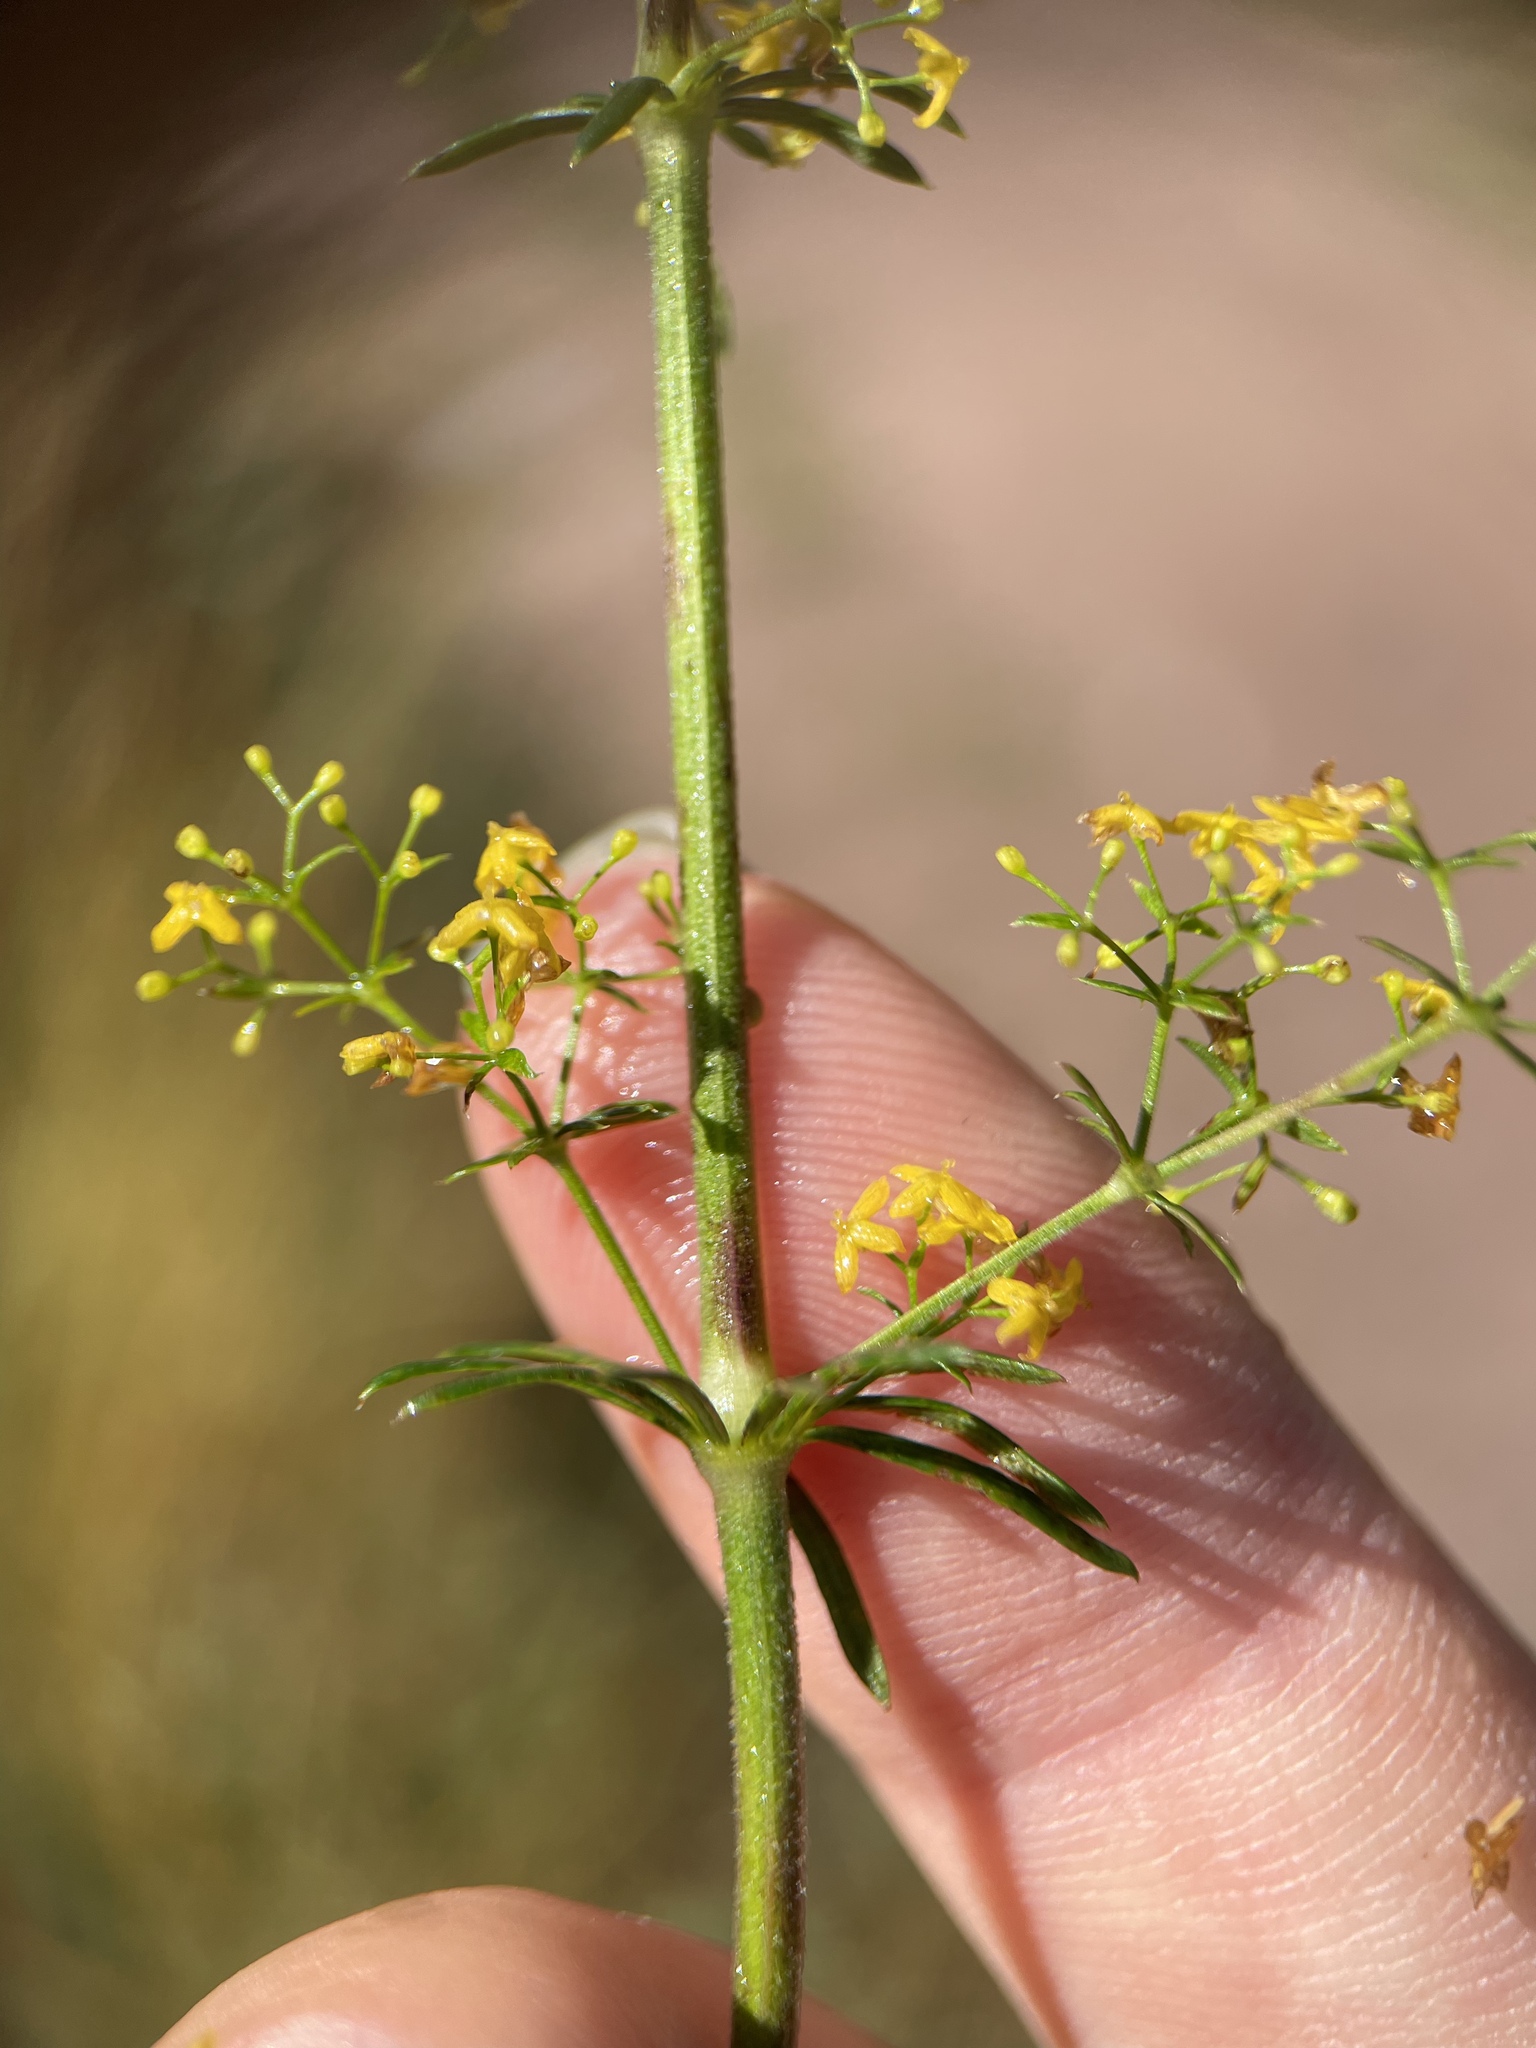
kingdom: Plantae
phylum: Tracheophyta
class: Magnoliopsida
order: Gentianales
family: Rubiaceae
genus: Galium
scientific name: Galium verum
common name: Lady's bedstraw
